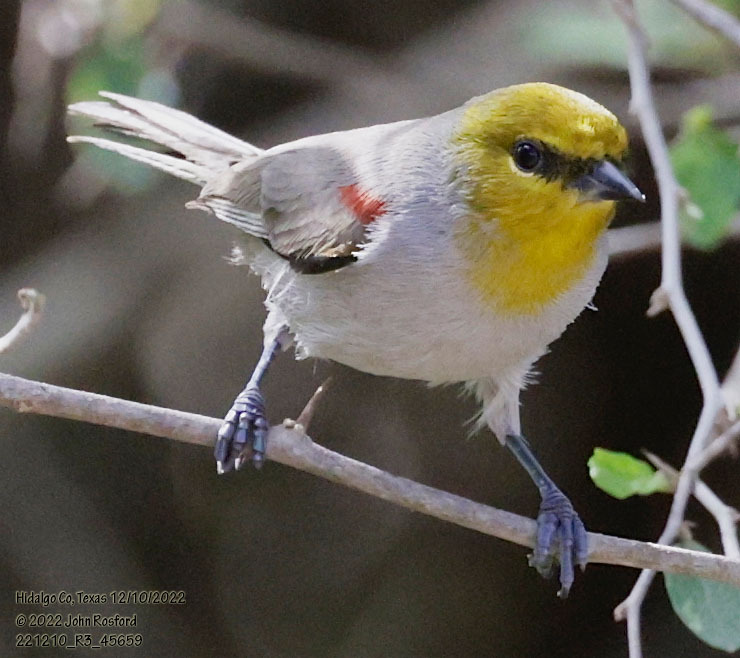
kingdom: Animalia
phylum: Chordata
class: Aves
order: Passeriformes
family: Remizidae
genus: Auriparus
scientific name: Auriparus flaviceps
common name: Verdin
